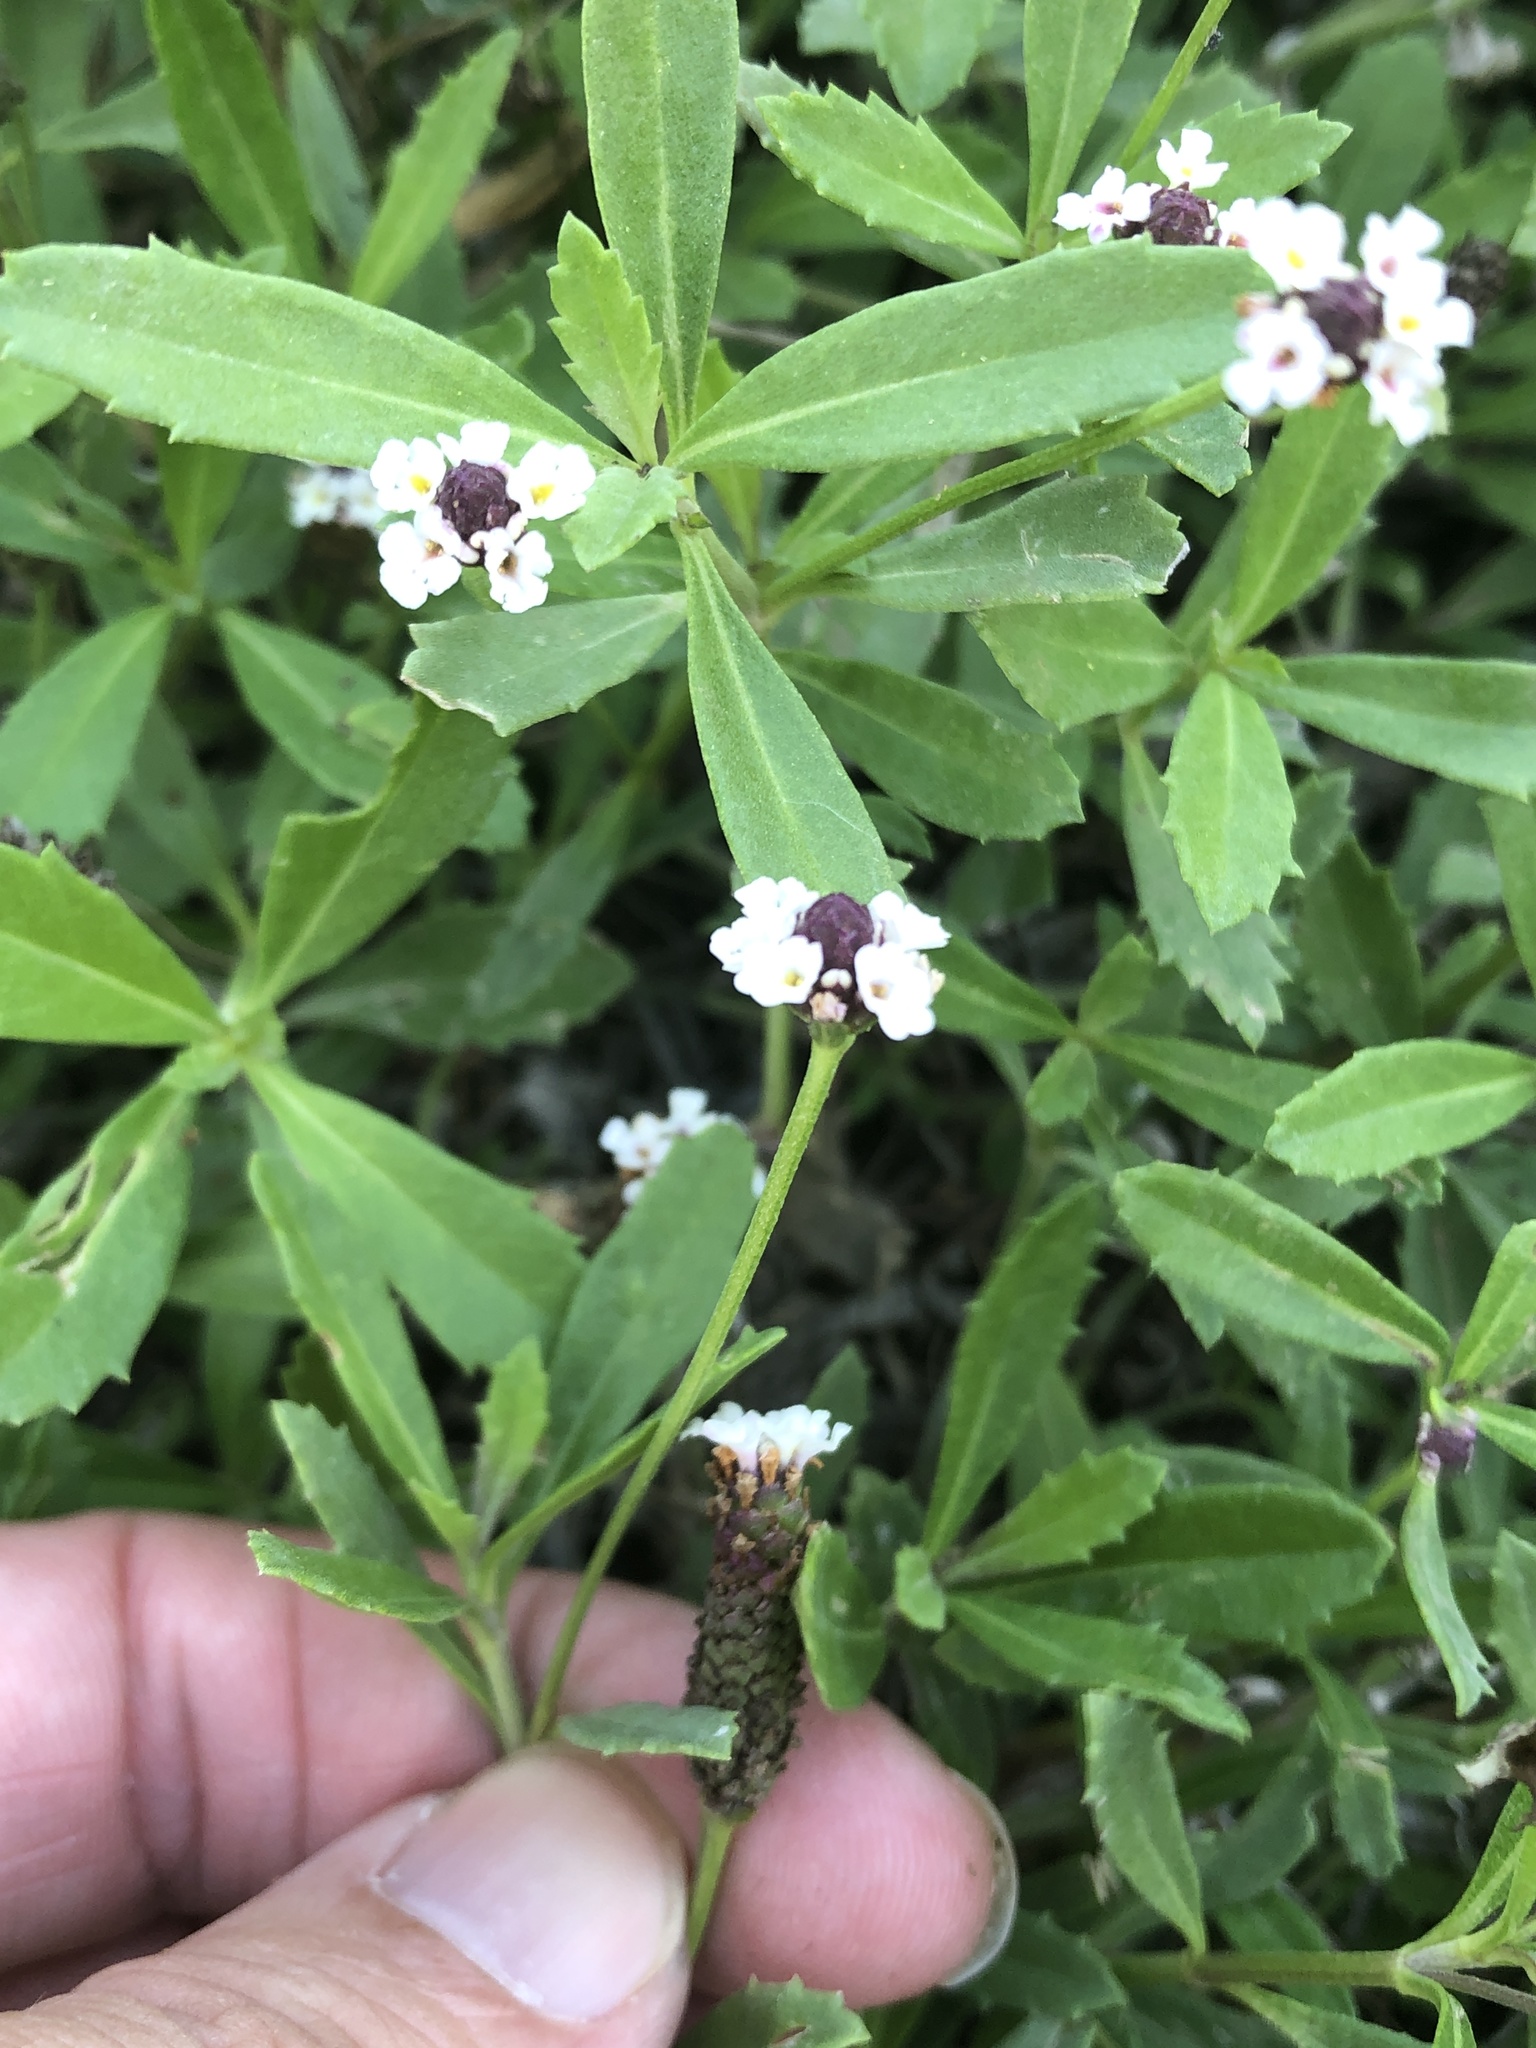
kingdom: Plantae
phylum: Tracheophyta
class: Magnoliopsida
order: Lamiales
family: Verbenaceae
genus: Phyla
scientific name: Phyla nodiflora
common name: Frogfruit
